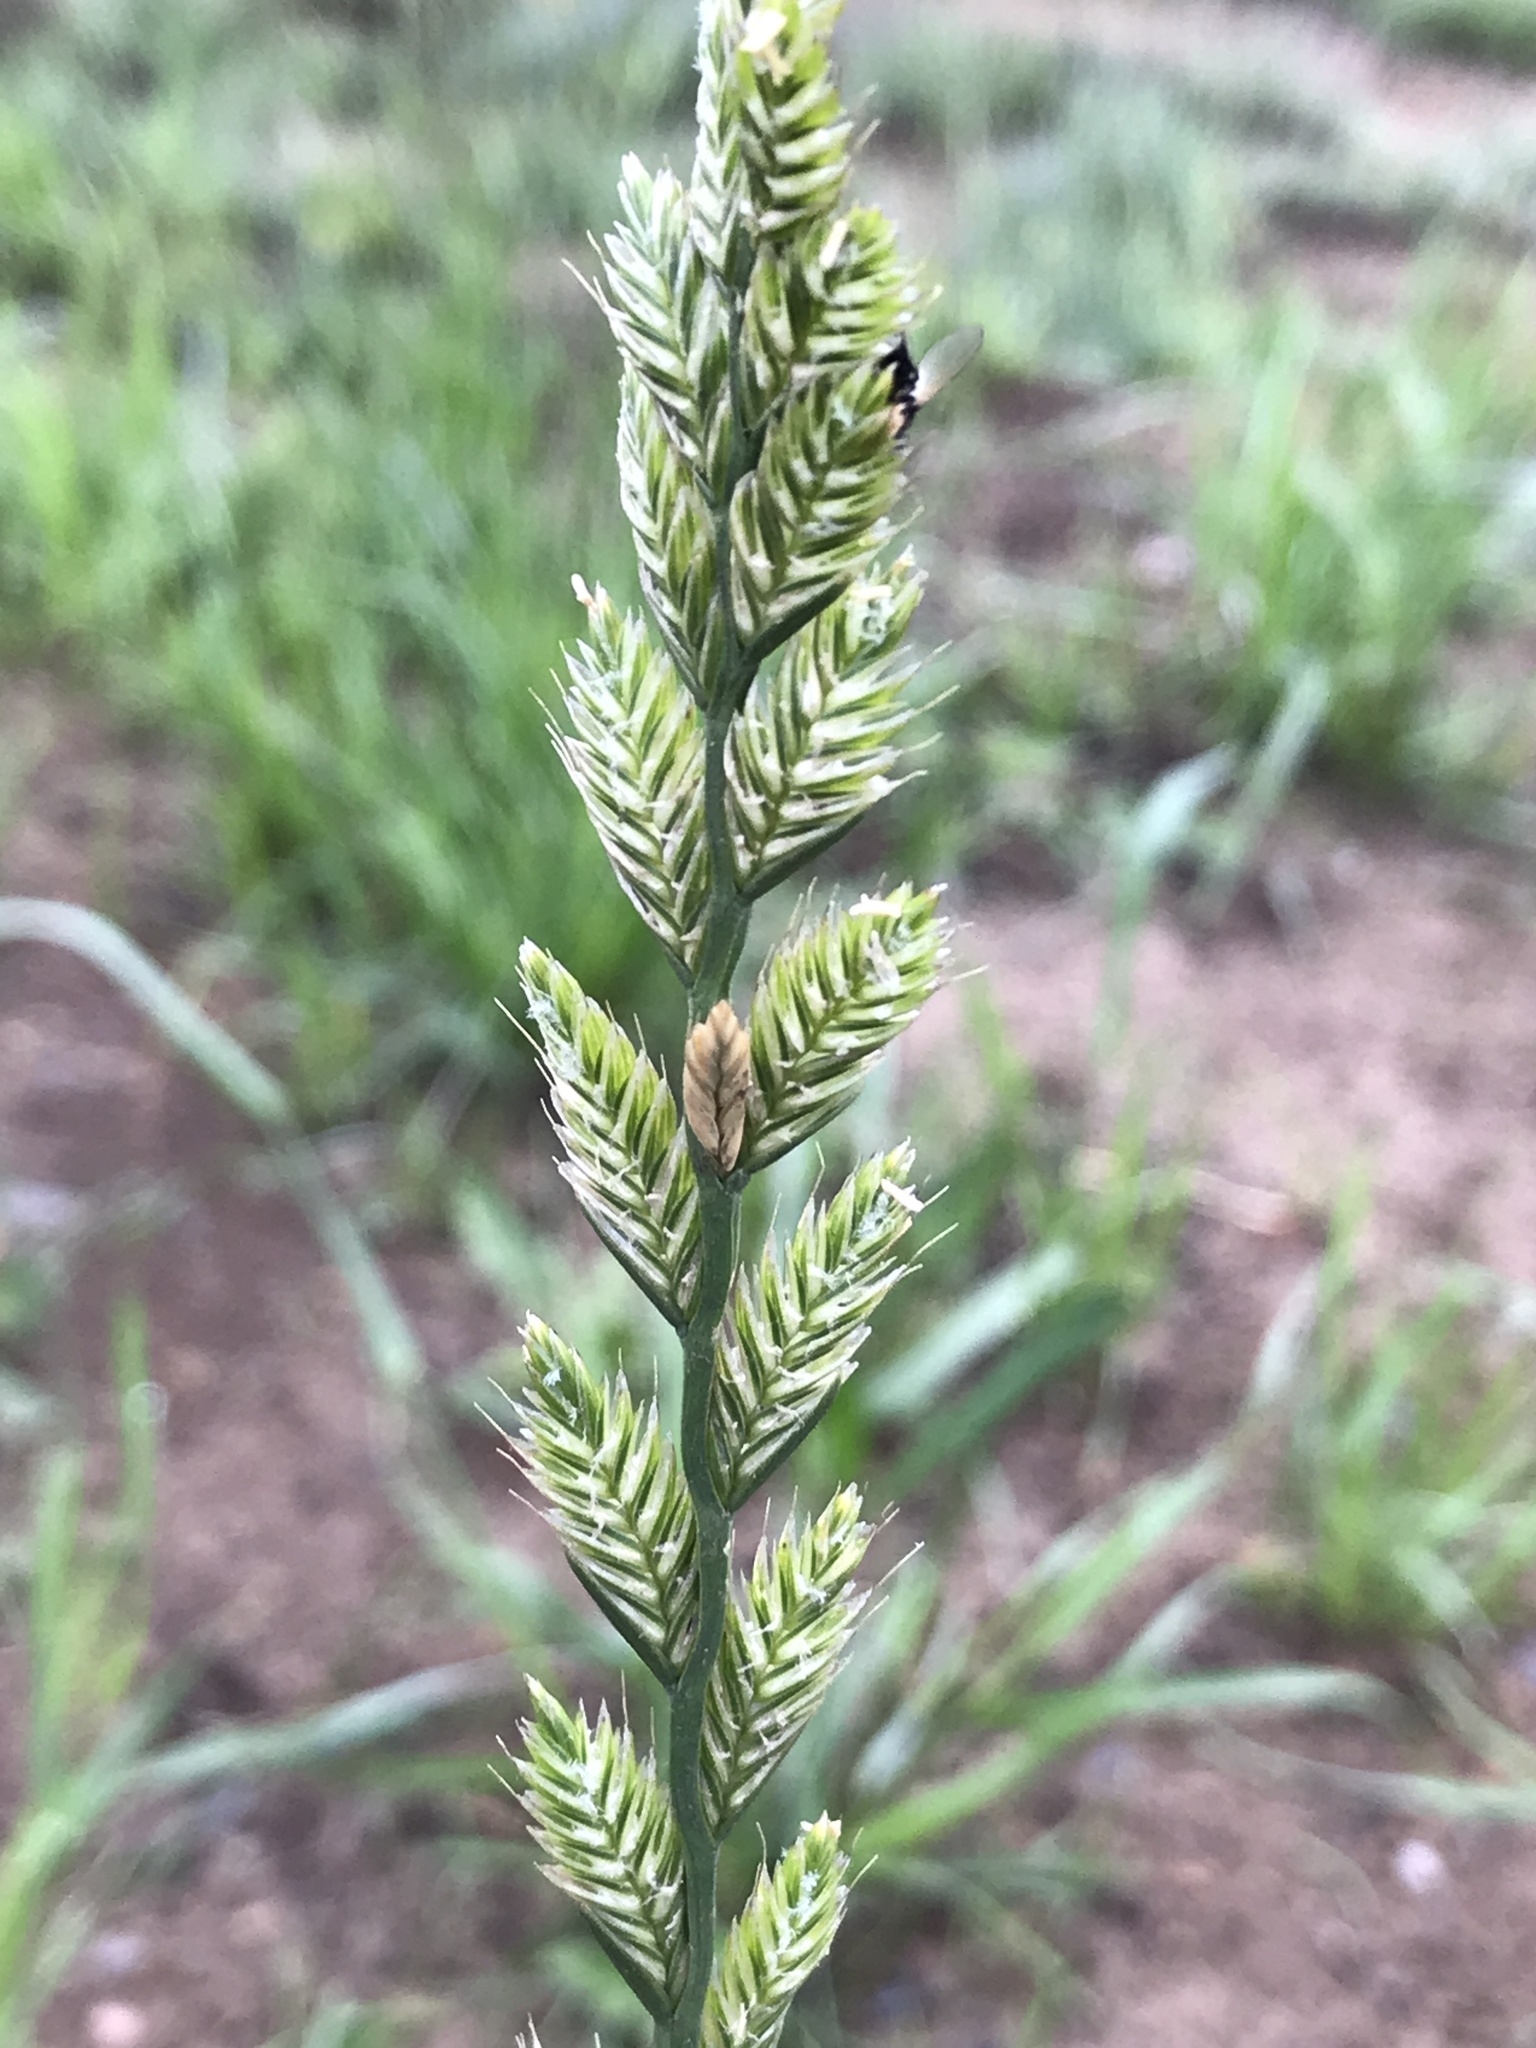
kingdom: Plantae
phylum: Tracheophyta
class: Liliopsida
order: Poales
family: Poaceae
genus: Lolium
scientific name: Lolium perenne
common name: Perennial ryegrass
